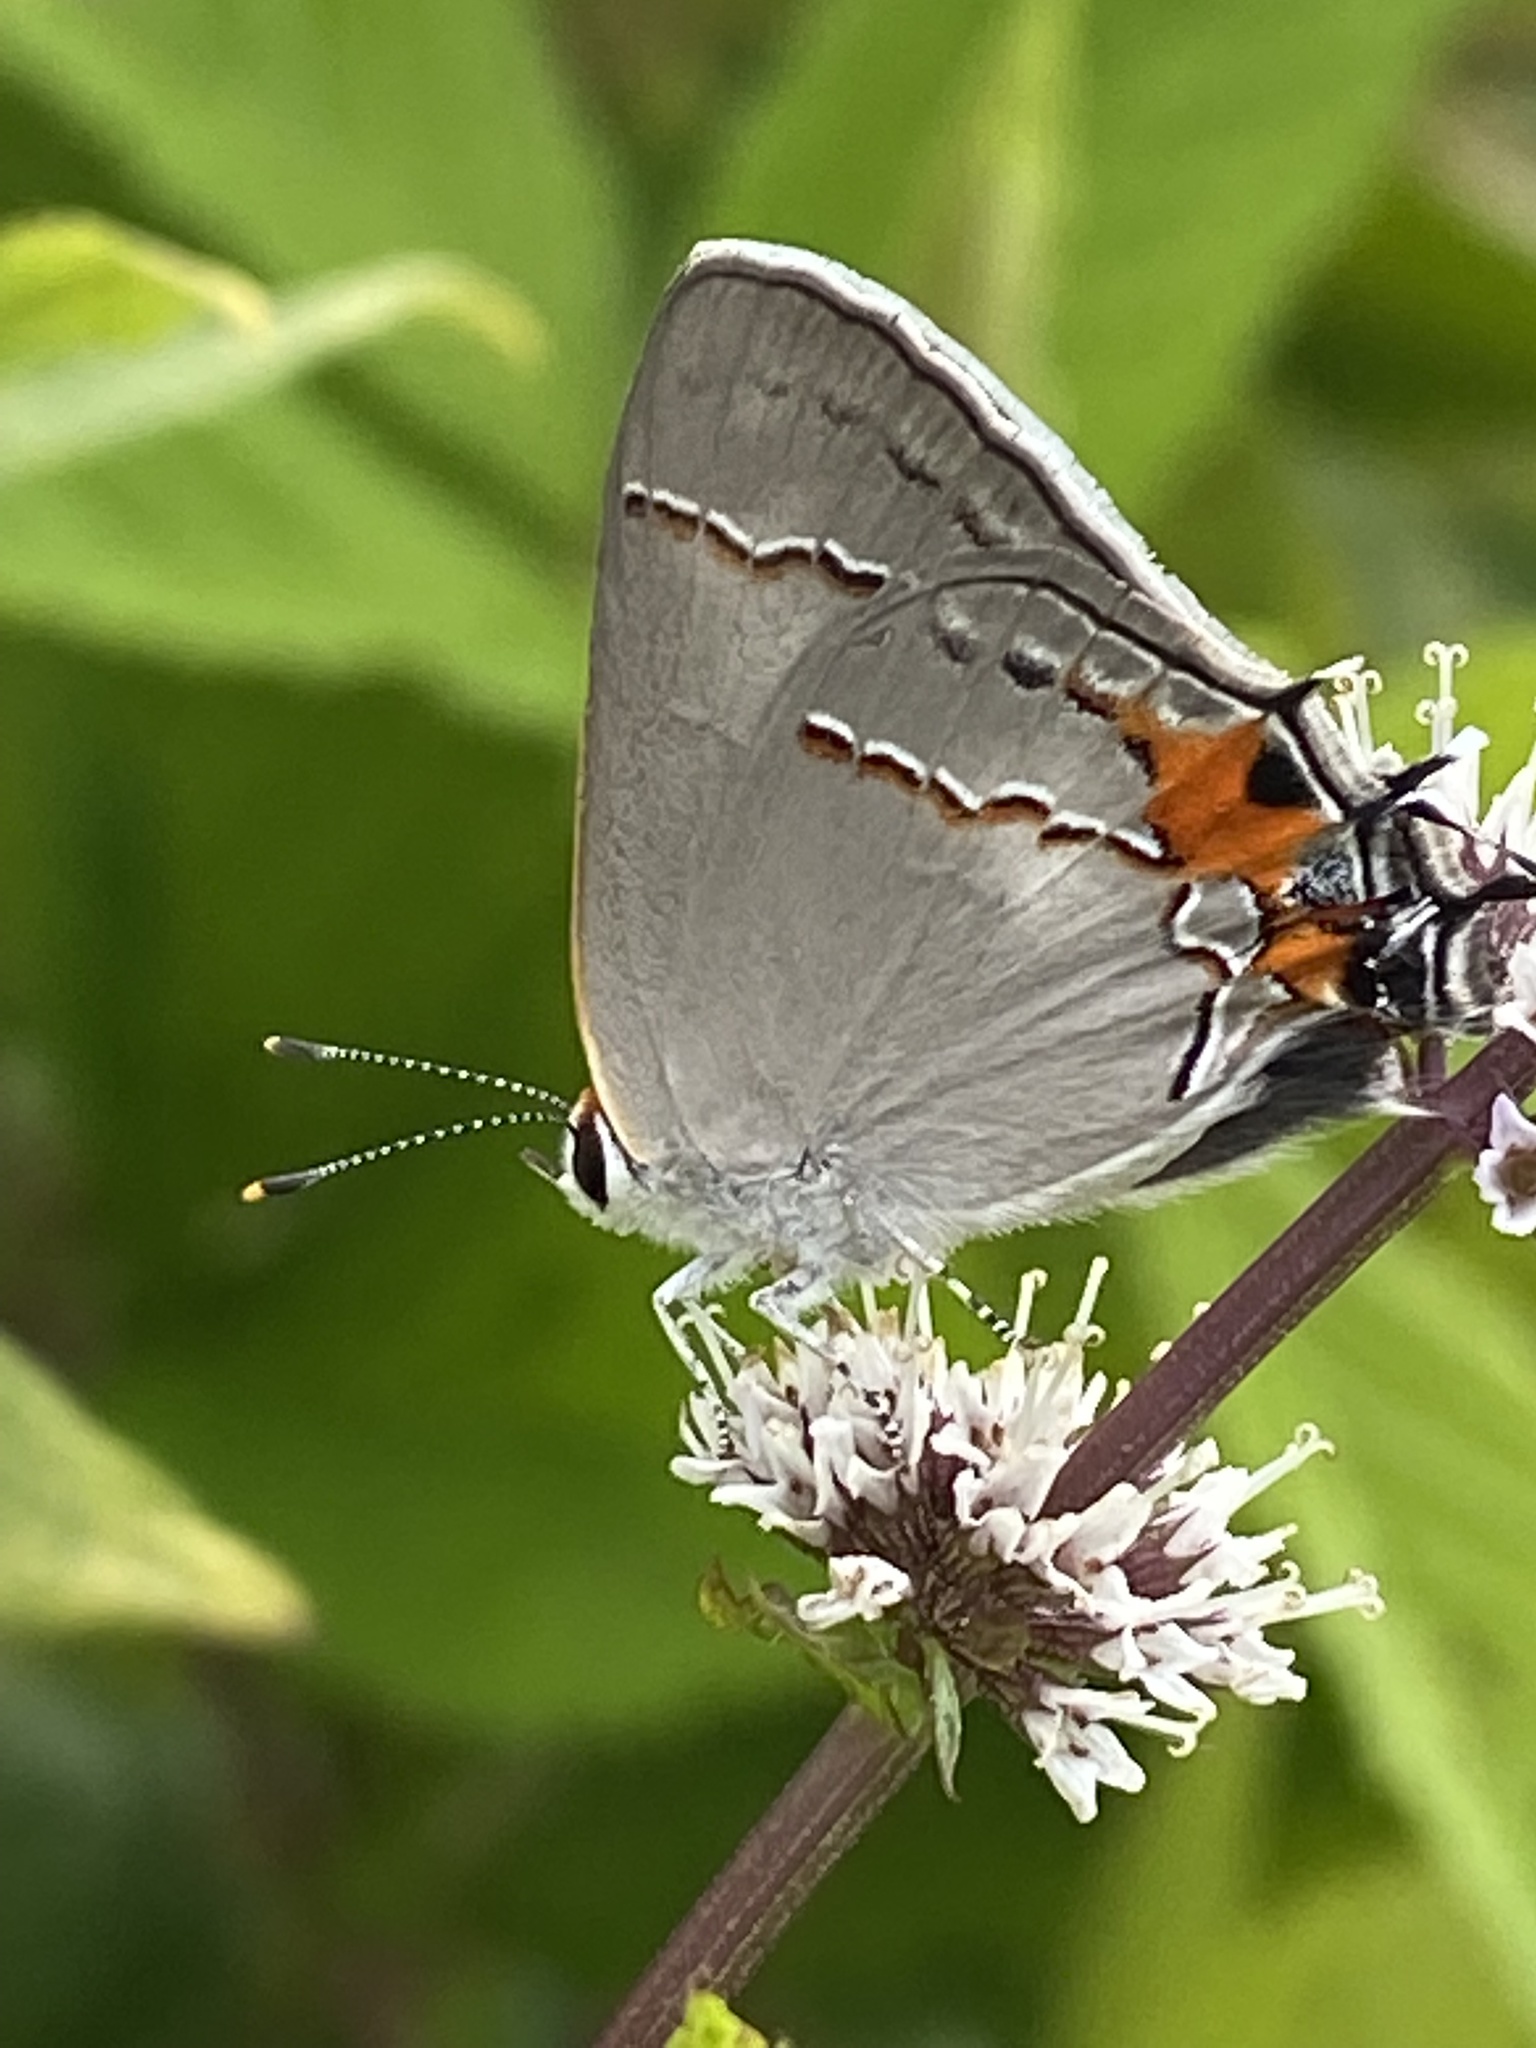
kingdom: Animalia
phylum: Arthropoda
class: Insecta
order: Lepidoptera
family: Lycaenidae
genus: Strymon
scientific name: Strymon melinus
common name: Gray hairstreak
